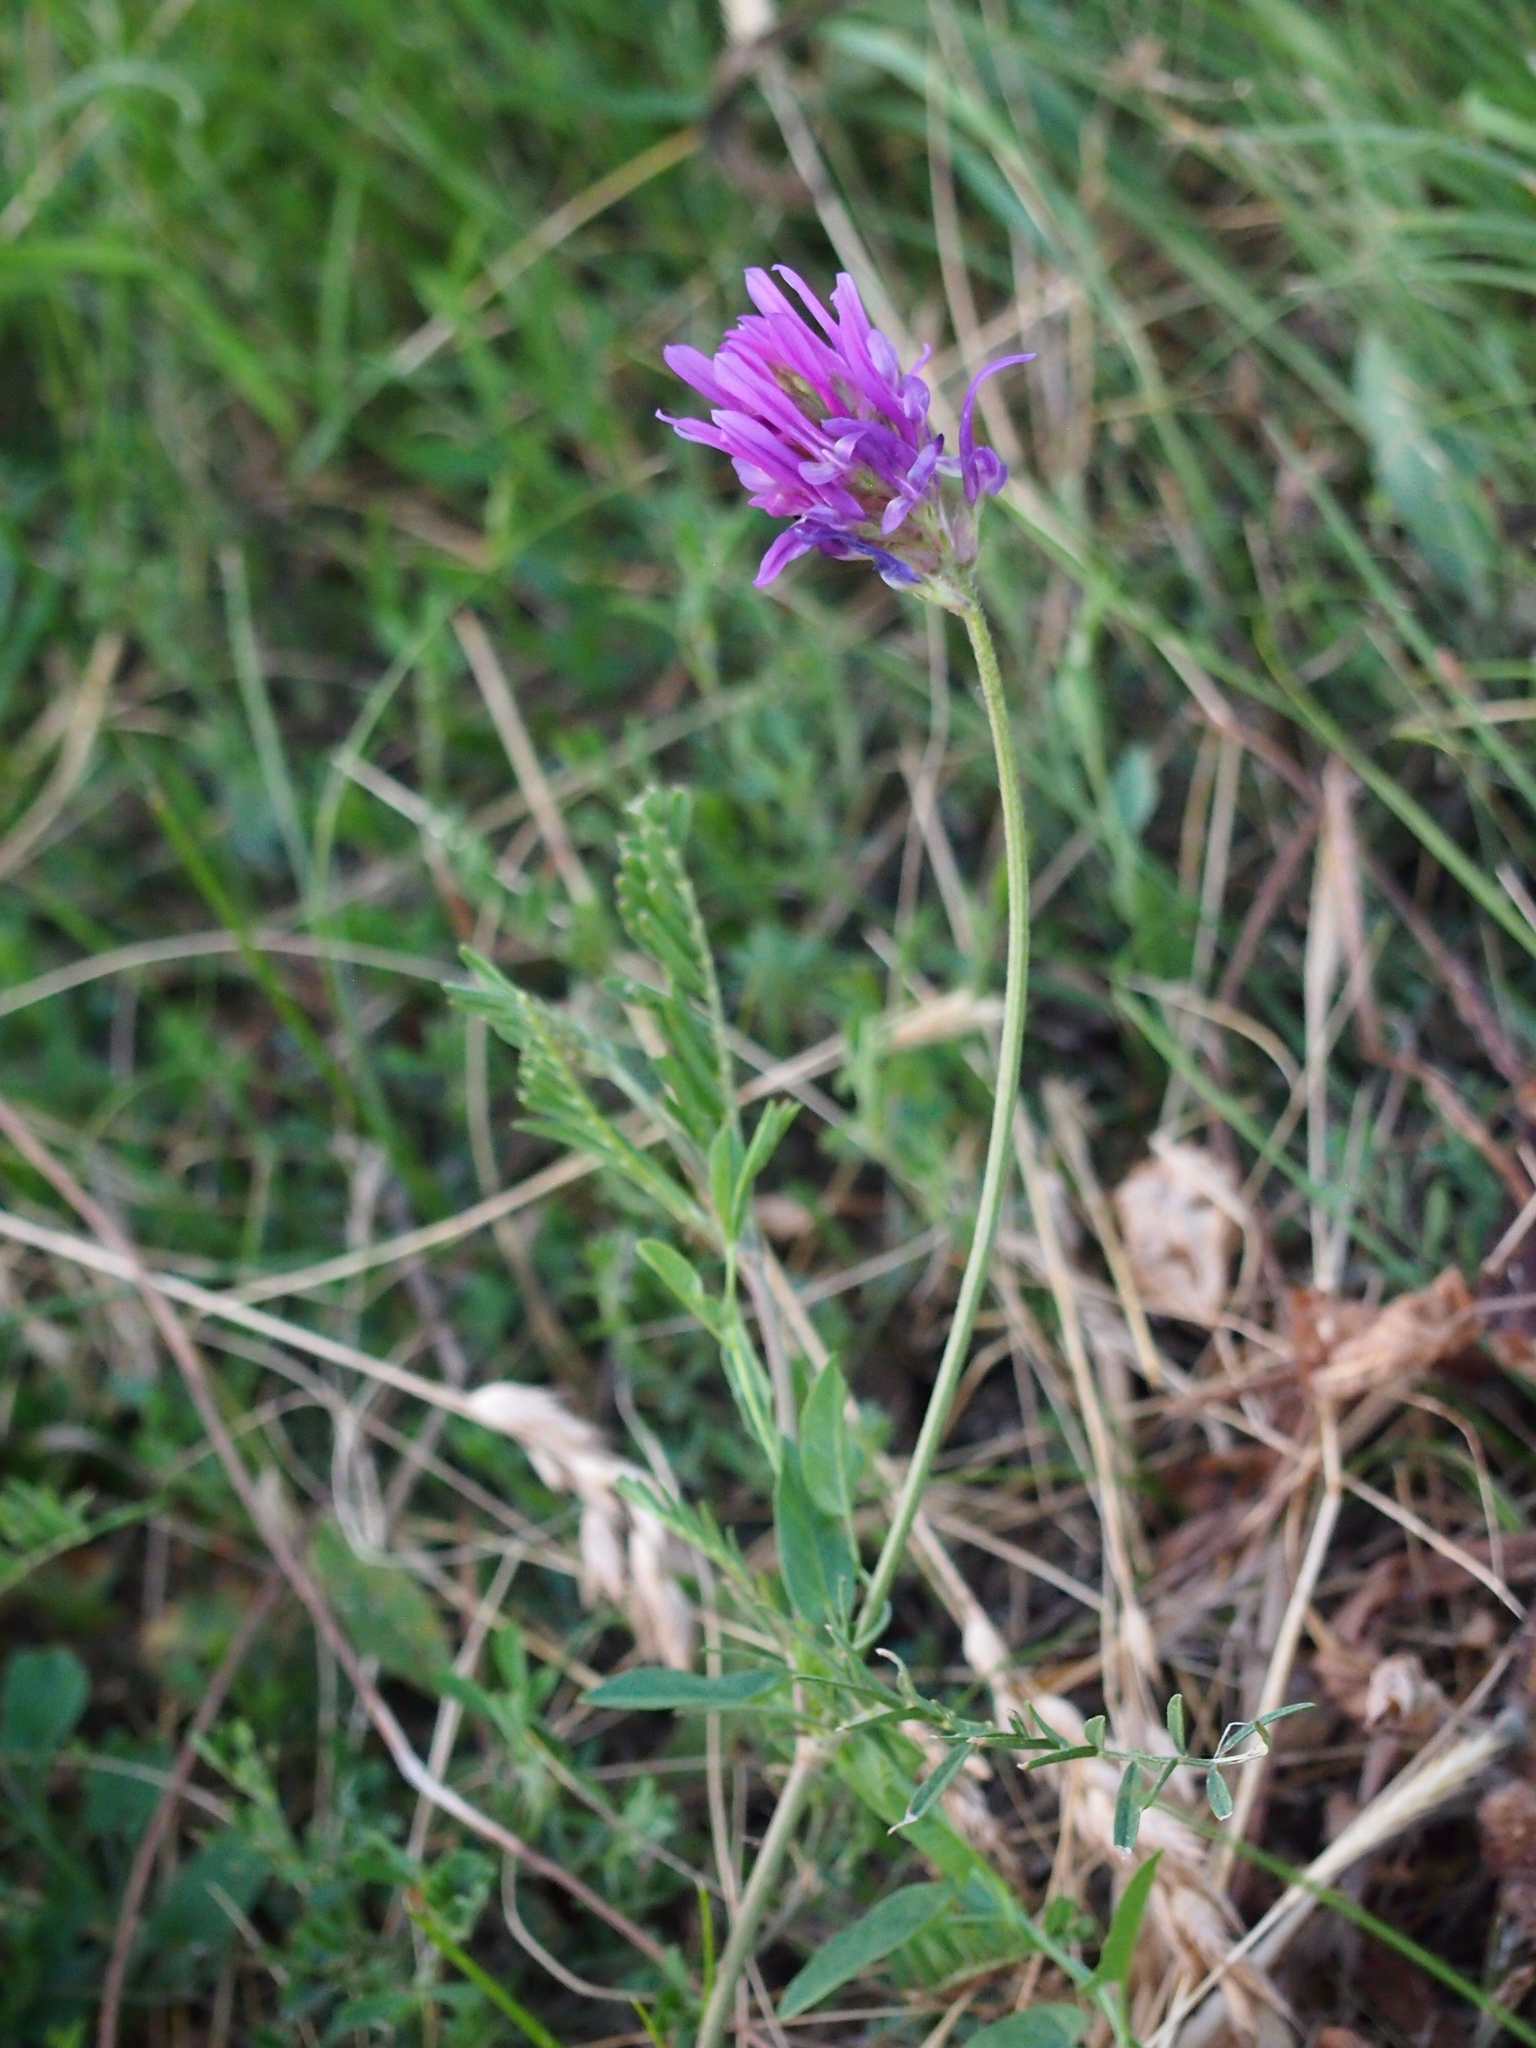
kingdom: Plantae
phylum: Tracheophyta
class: Magnoliopsida
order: Fabales
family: Fabaceae
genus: Astragalus
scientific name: Astragalus onobrychis
